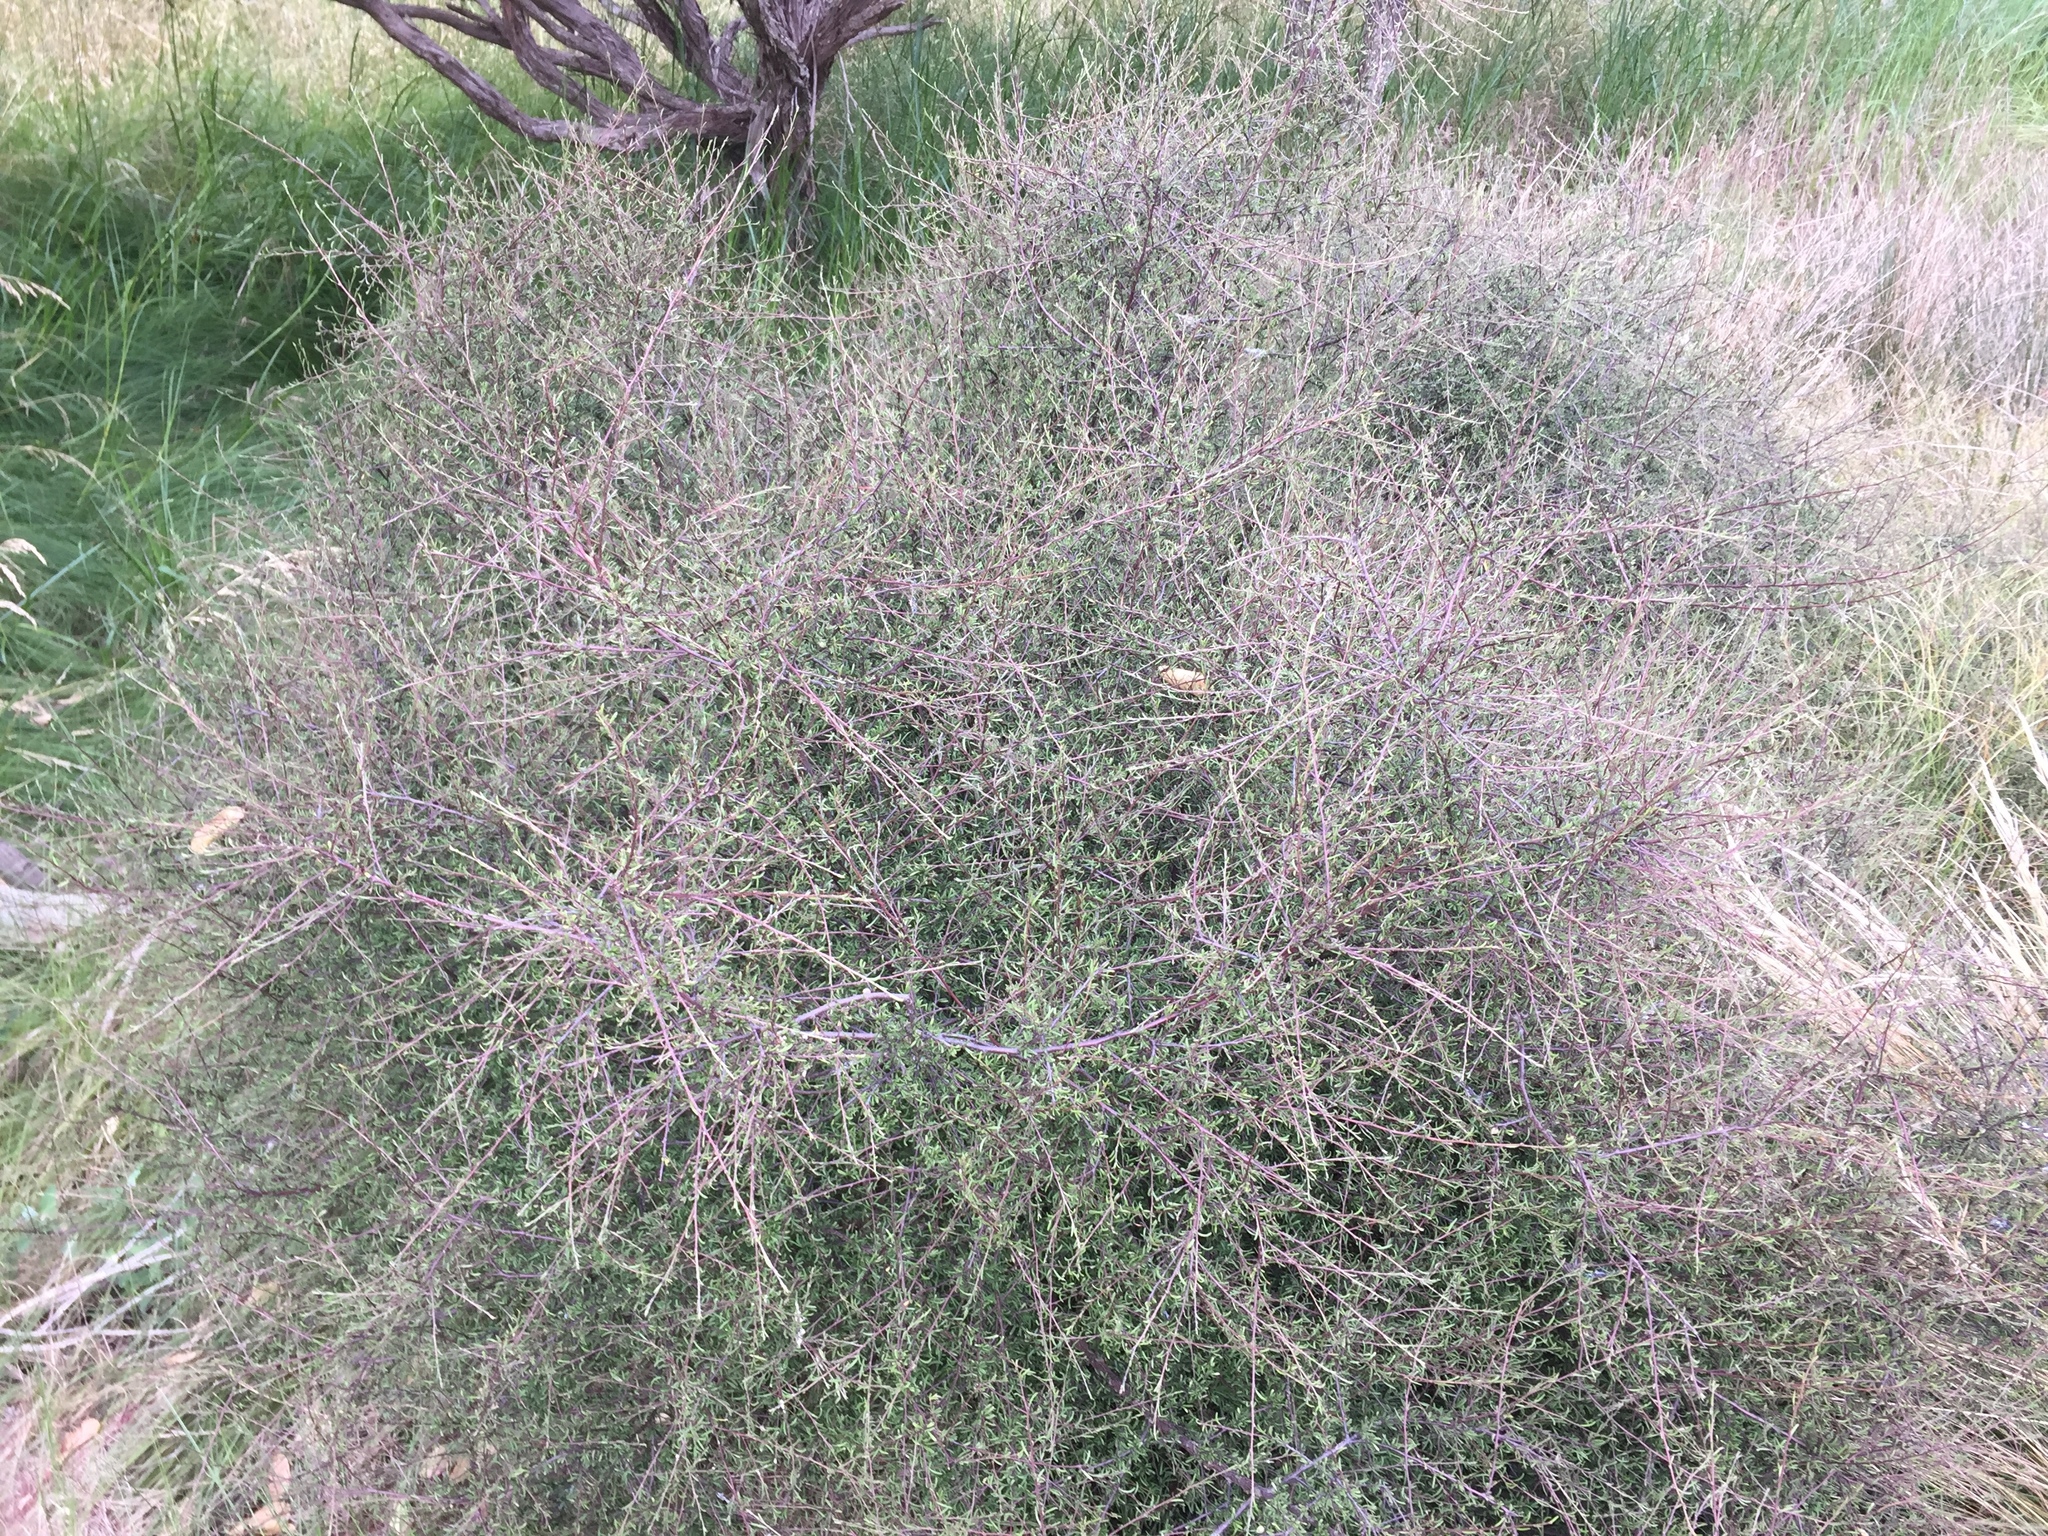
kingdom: Plantae
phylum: Tracheophyta
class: Magnoliopsida
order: Malvales
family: Malvaceae
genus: Plagianthus
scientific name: Plagianthus divaricatus
